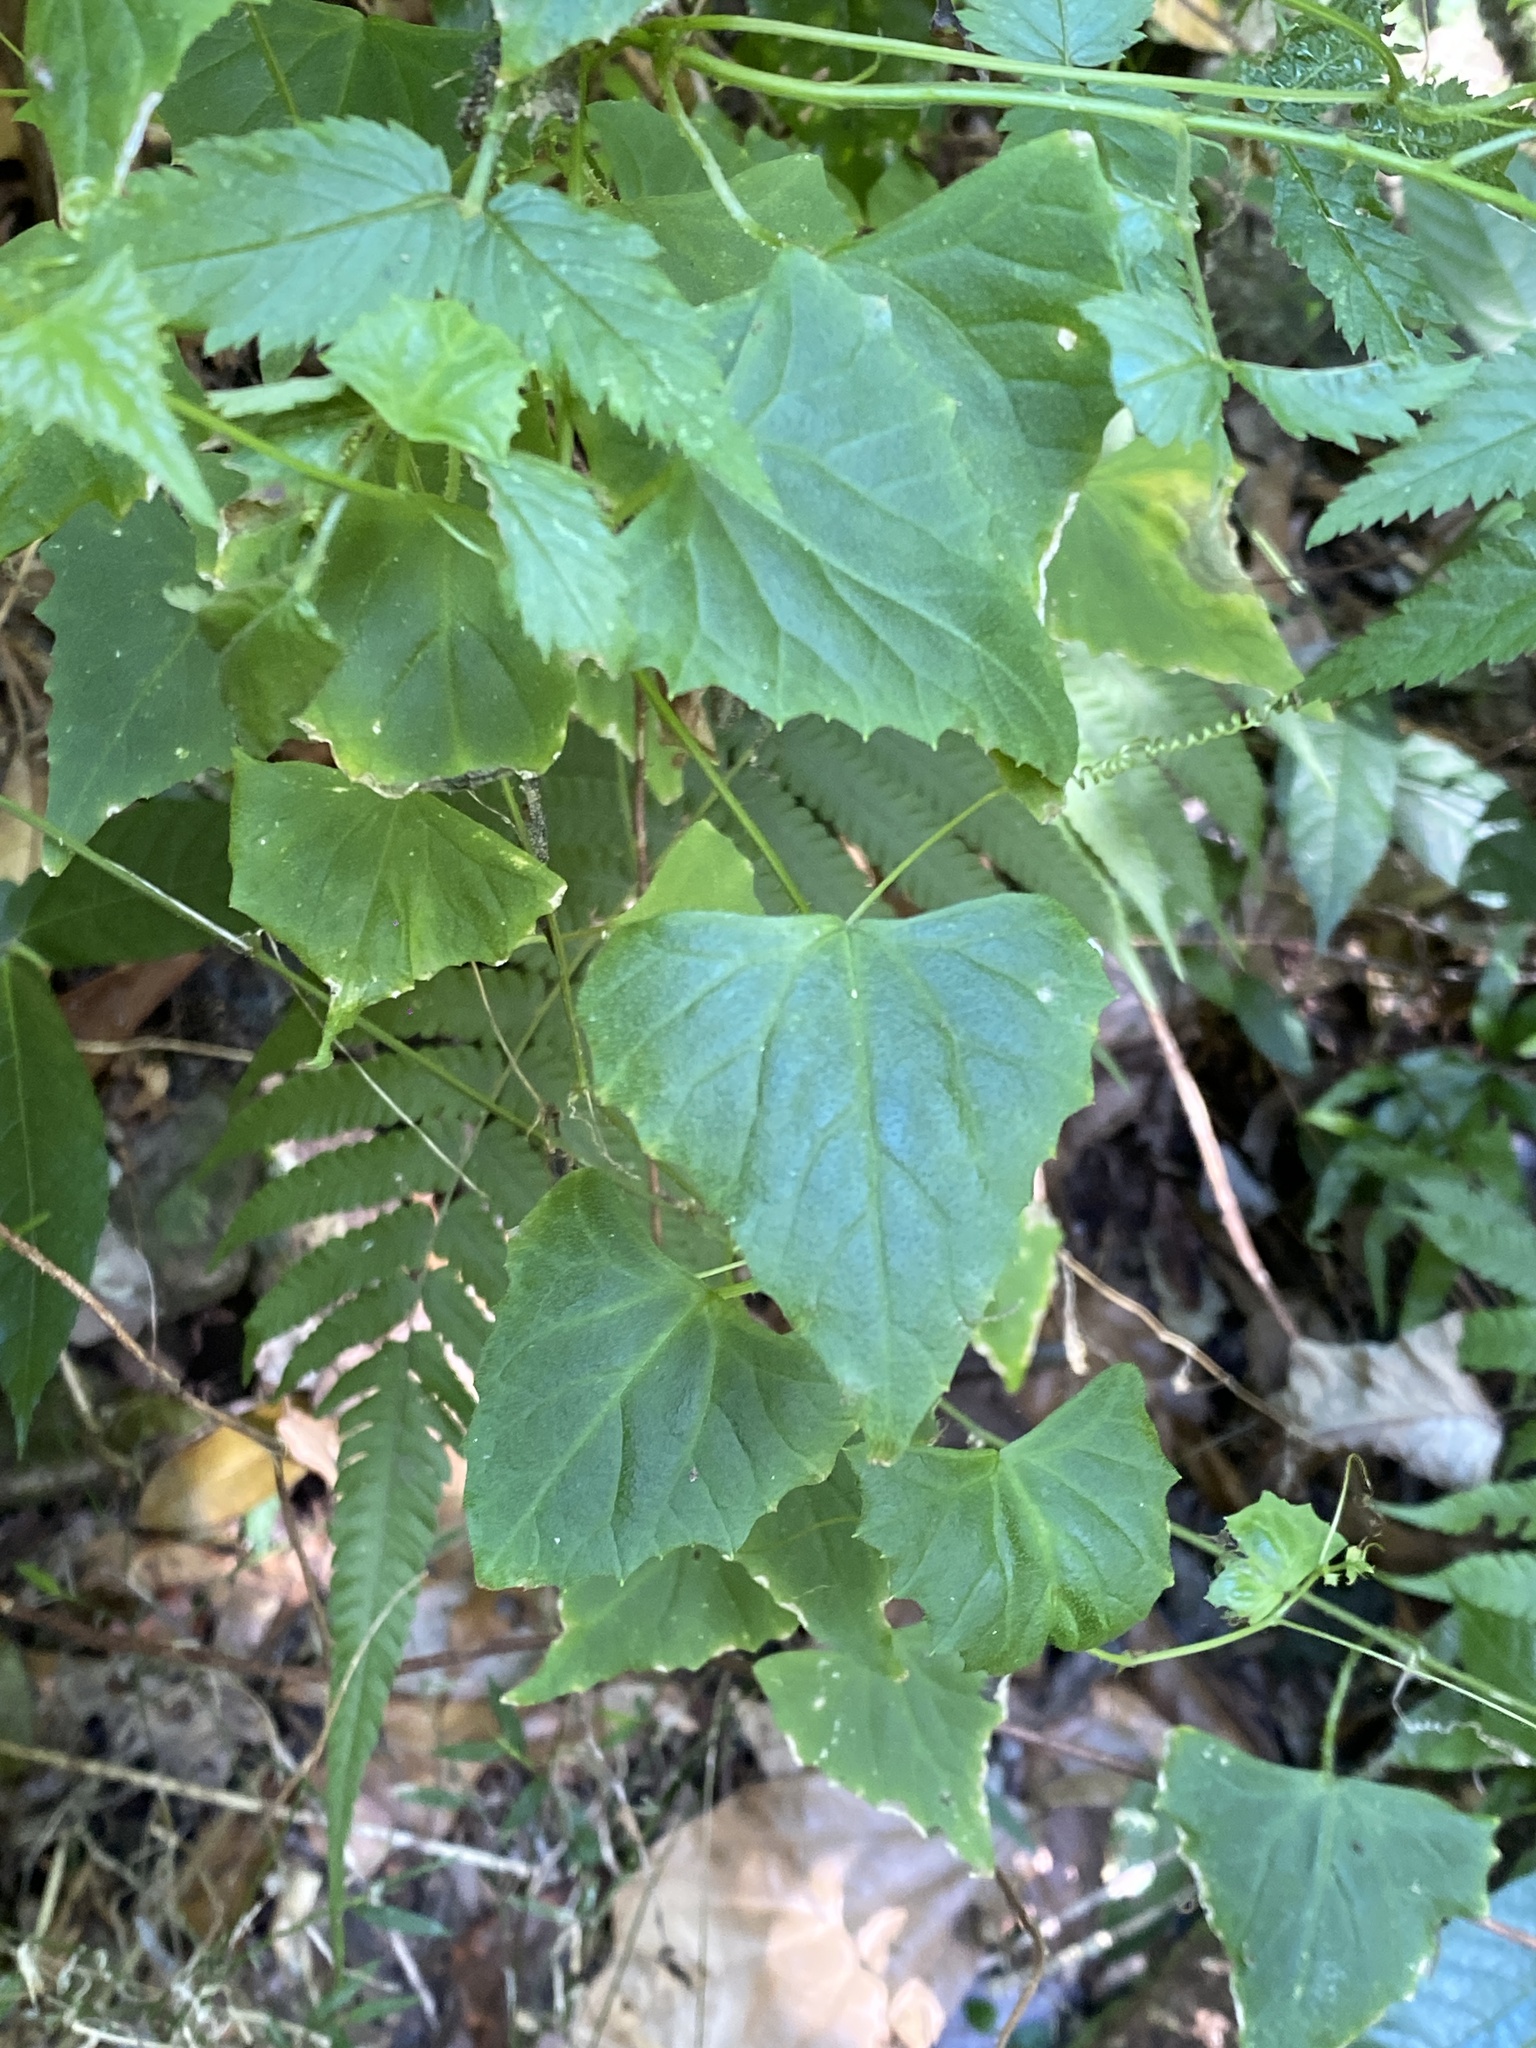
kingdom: Plantae
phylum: Tracheophyta
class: Magnoliopsida
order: Cucurbitales
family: Cucurbitaceae
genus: Zehneria
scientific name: Zehneria cunninghamii
